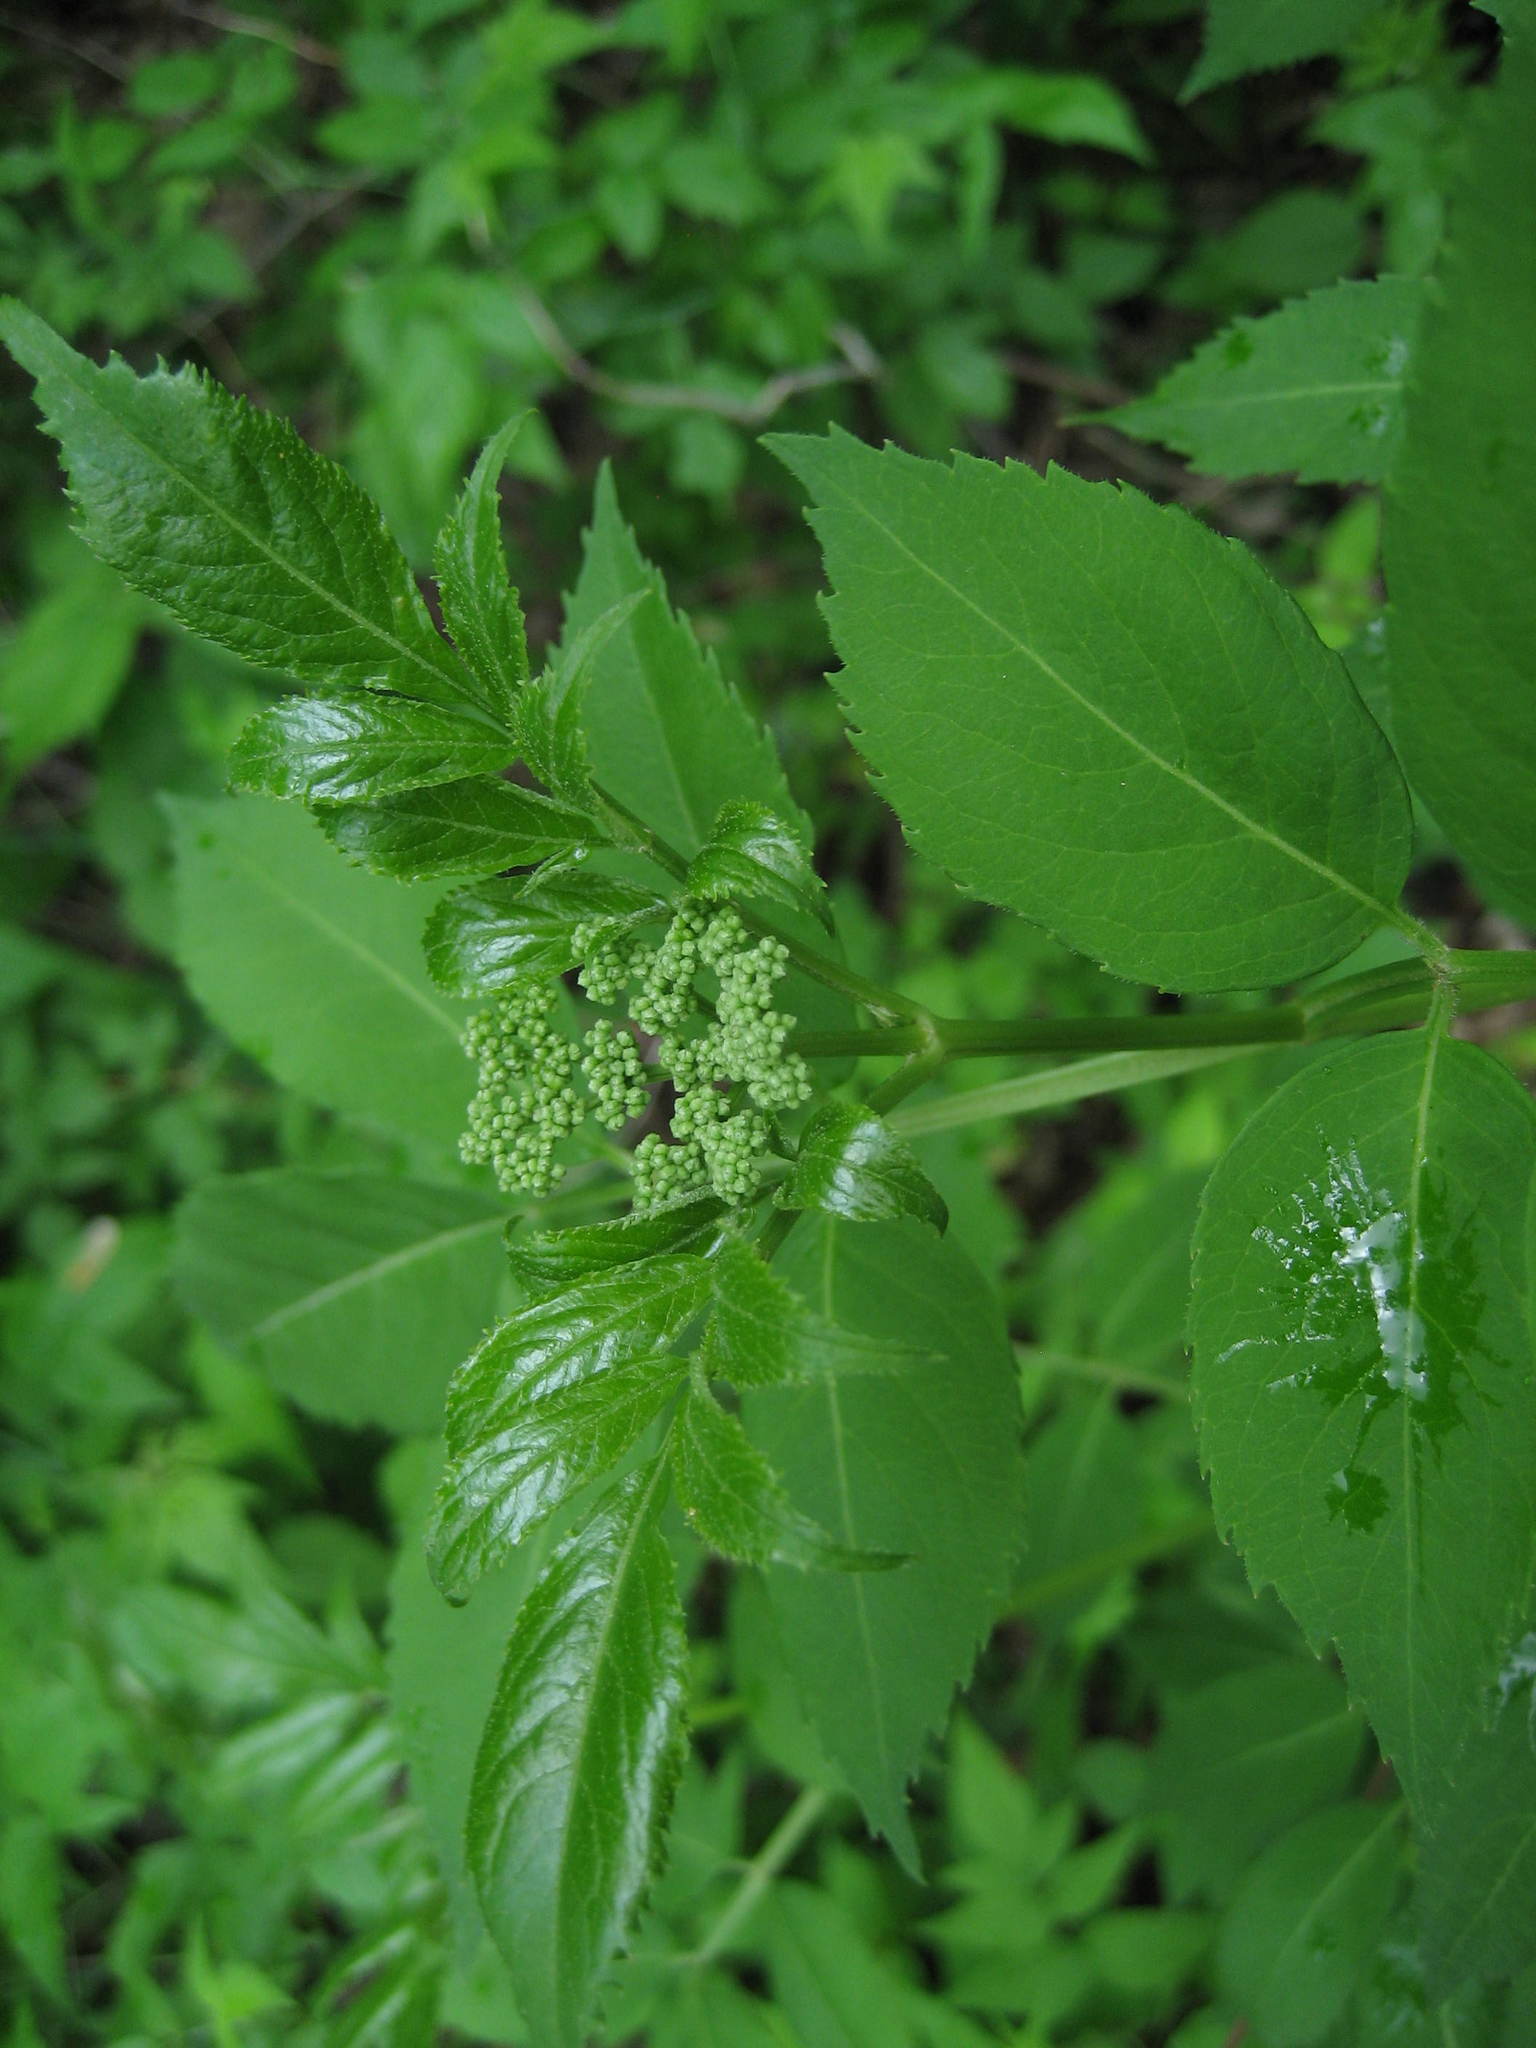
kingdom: Plantae
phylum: Tracheophyta
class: Magnoliopsida
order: Dipsacales
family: Viburnaceae
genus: Sambucus
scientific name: Sambucus canadensis
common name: American elder
